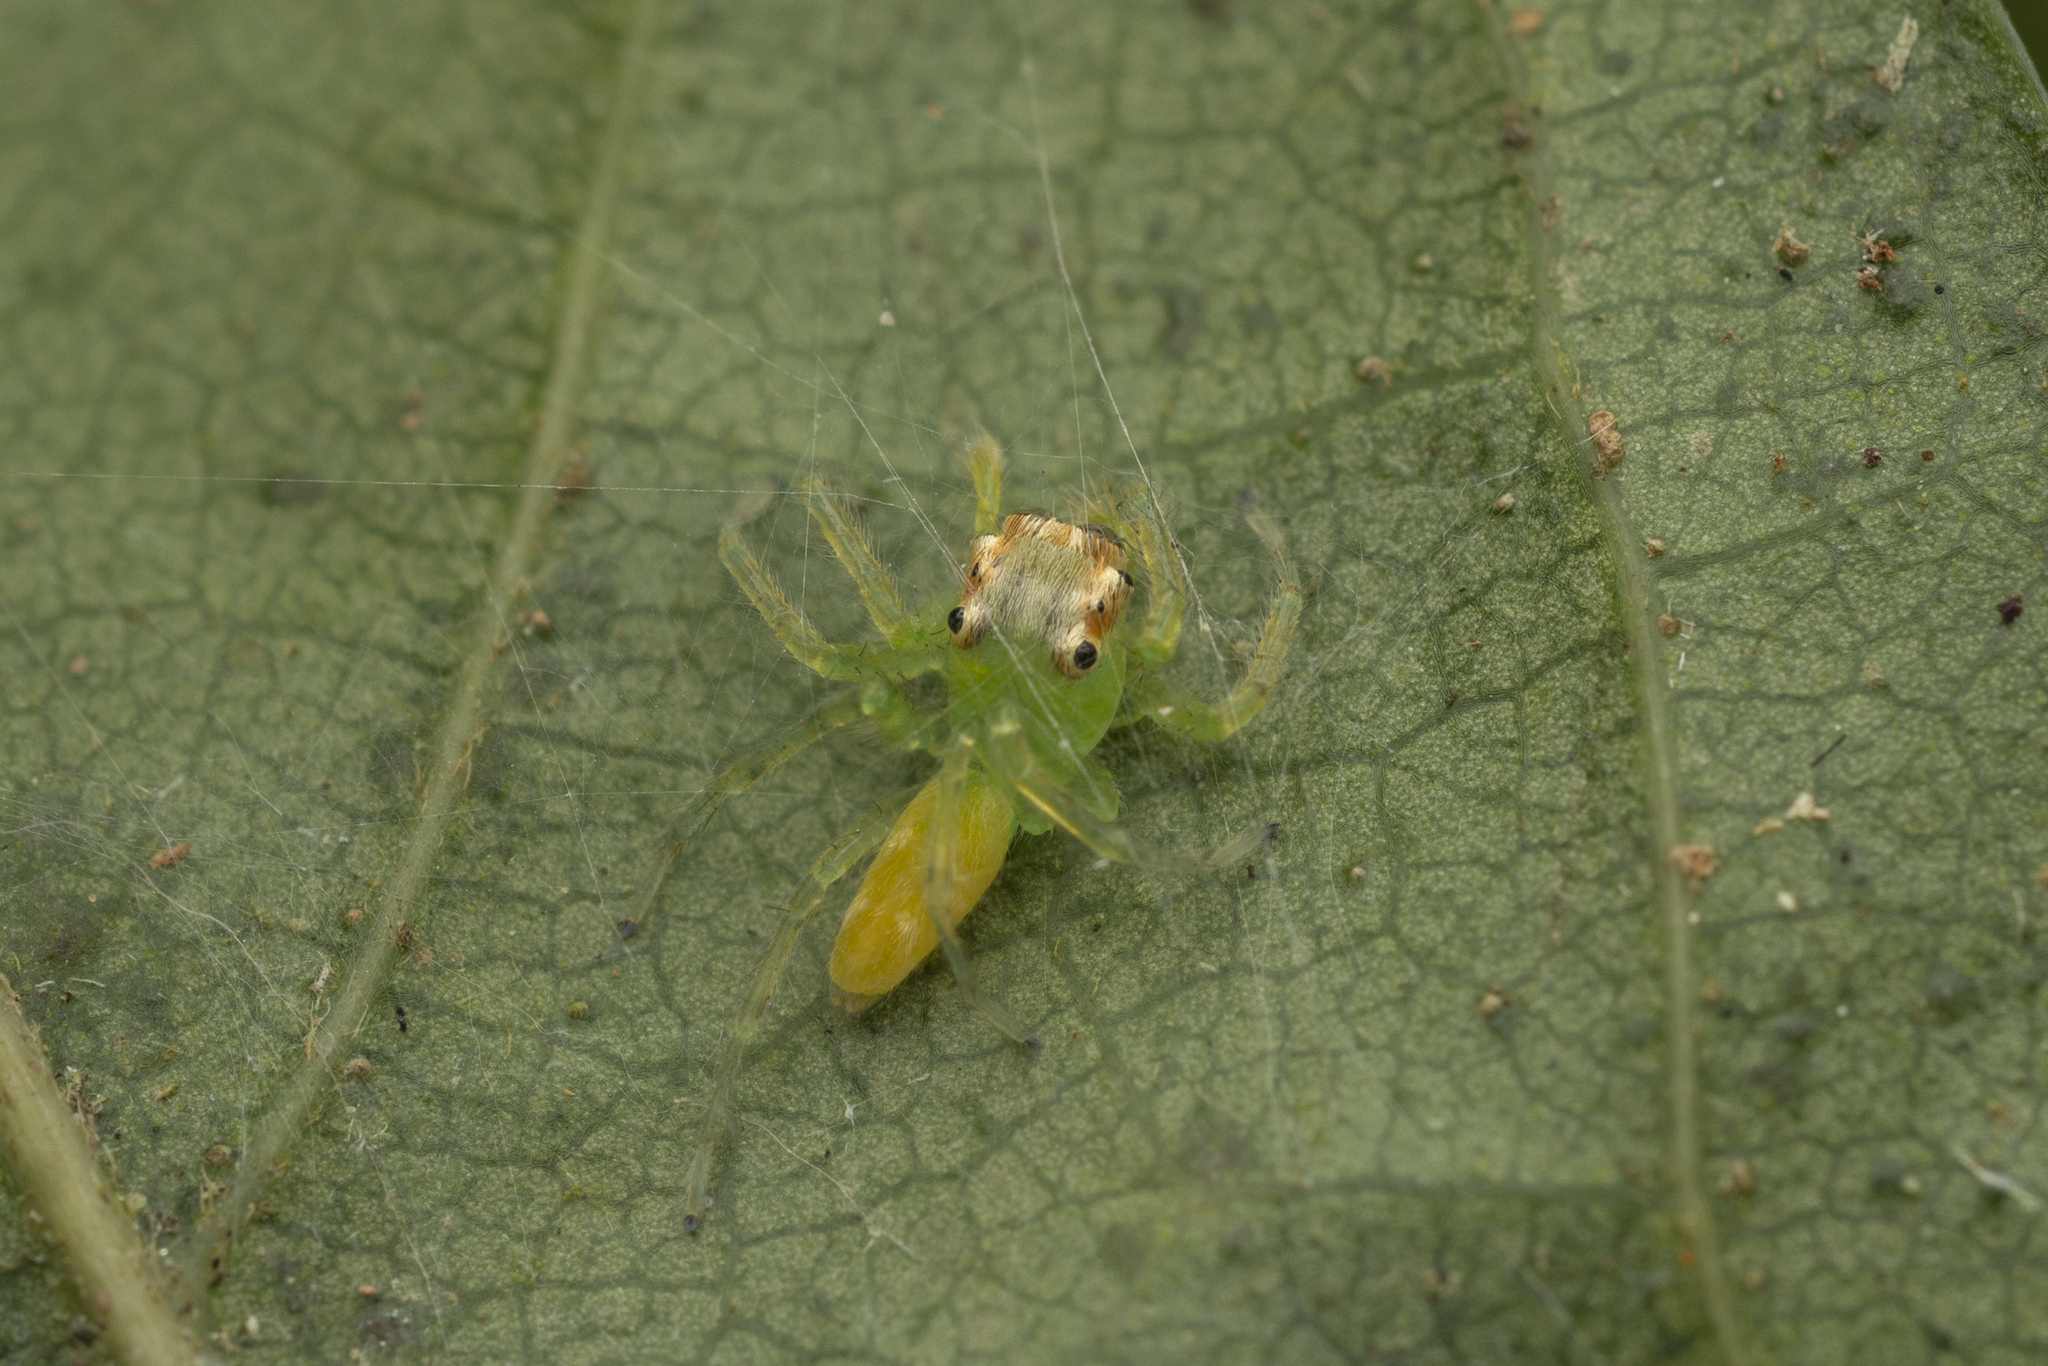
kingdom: Animalia
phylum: Arthropoda
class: Arachnida
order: Araneae
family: Salticidae
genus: Epeus
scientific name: Epeus glorius
